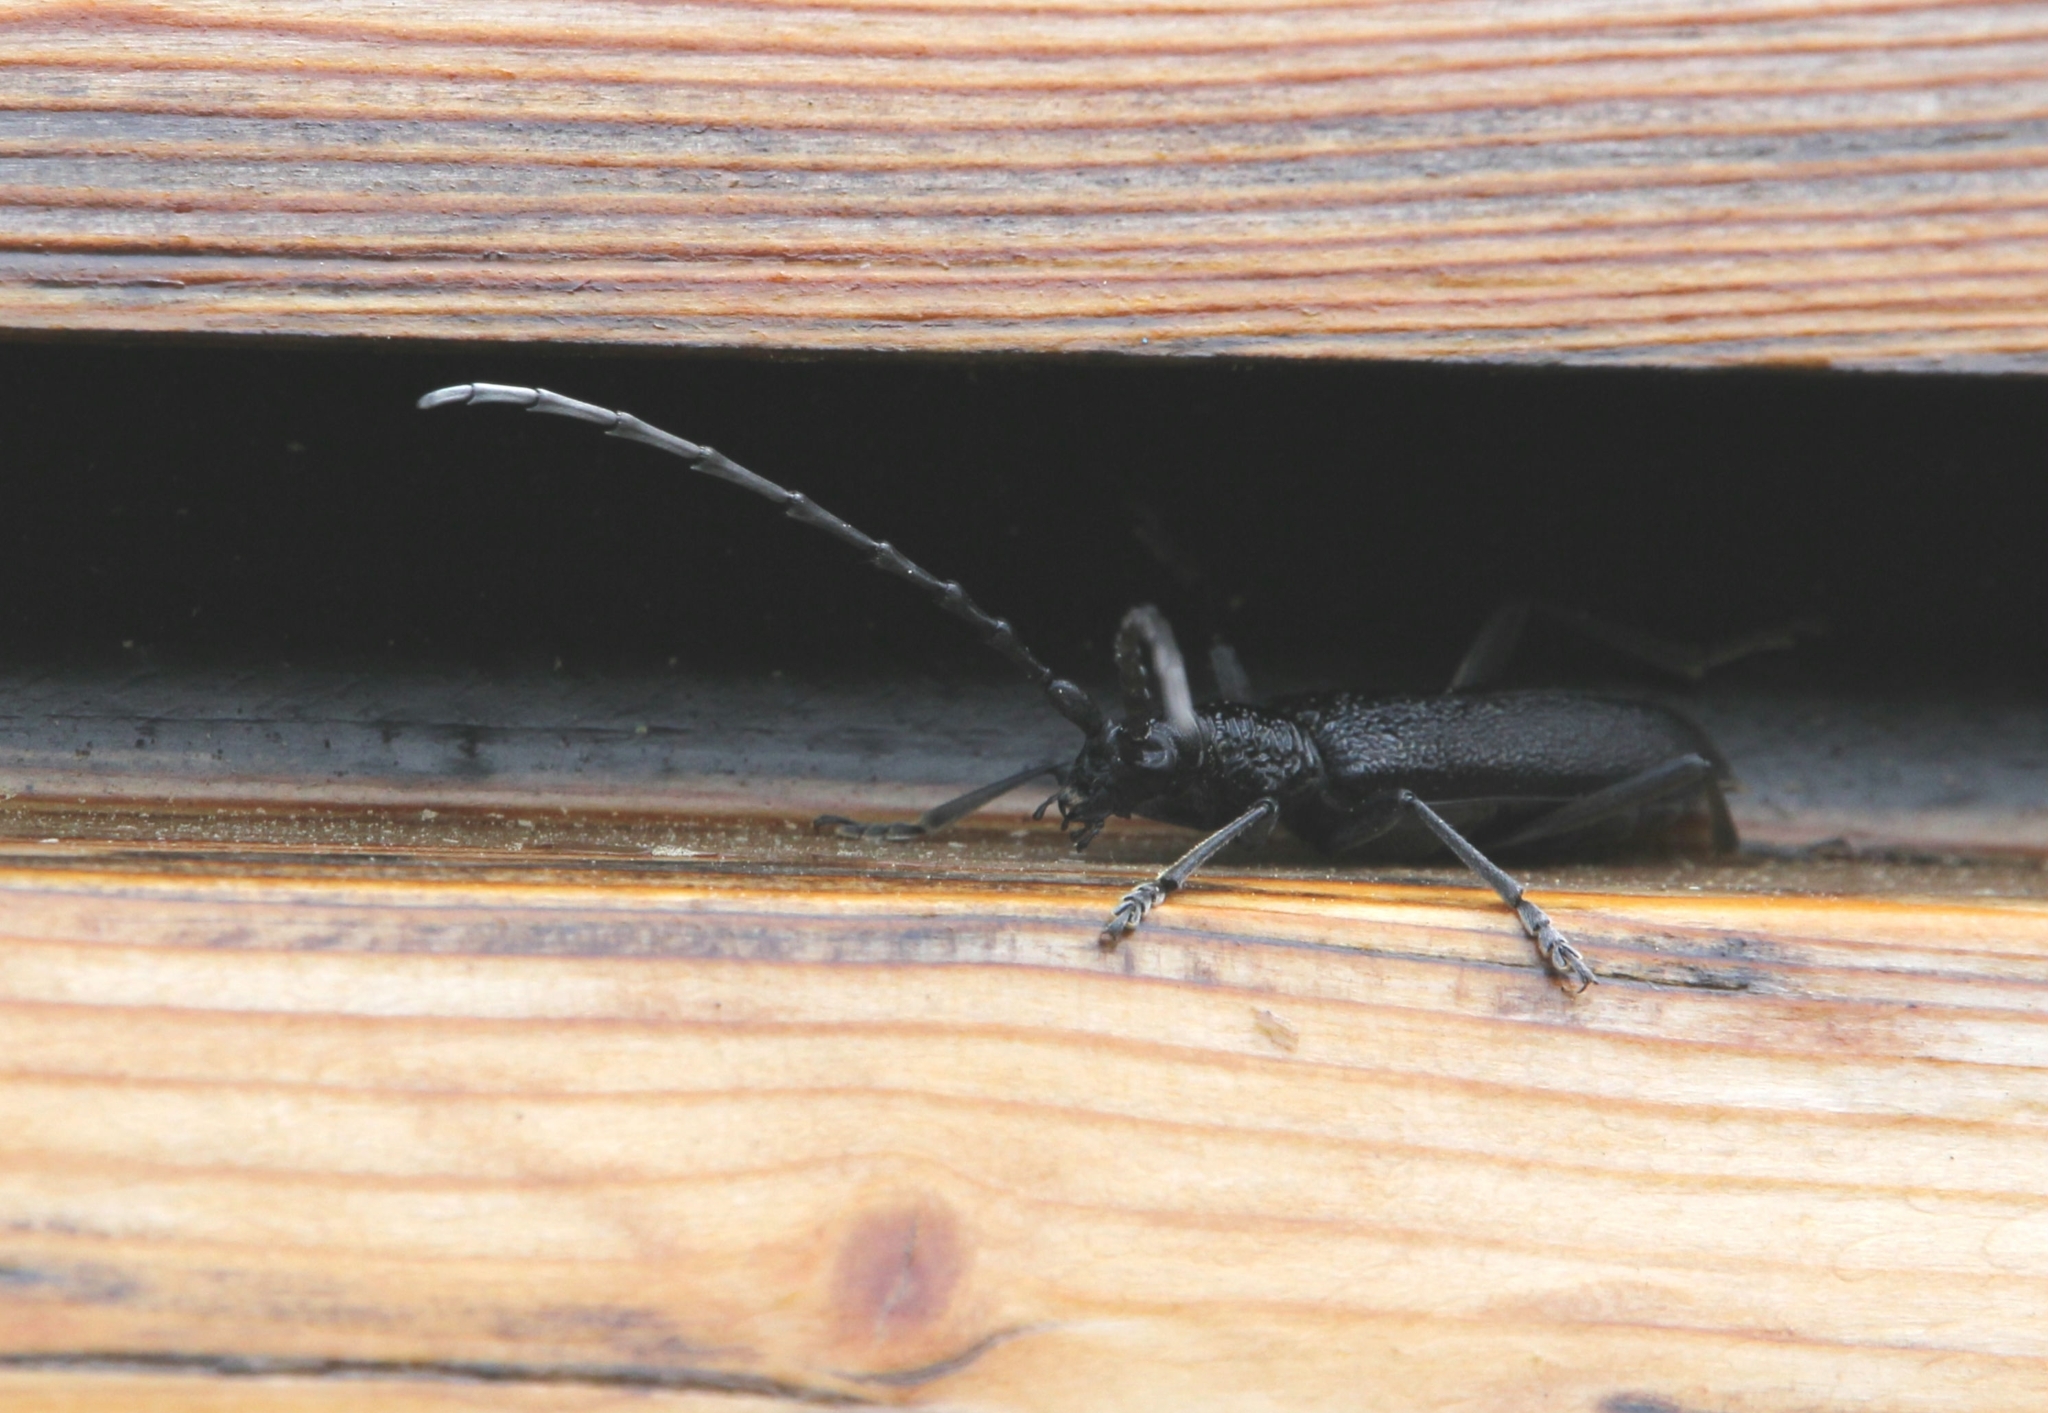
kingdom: Animalia
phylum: Arthropoda
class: Insecta
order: Coleoptera
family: Cerambycidae
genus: Cerambyx
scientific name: Cerambyx scopolii
